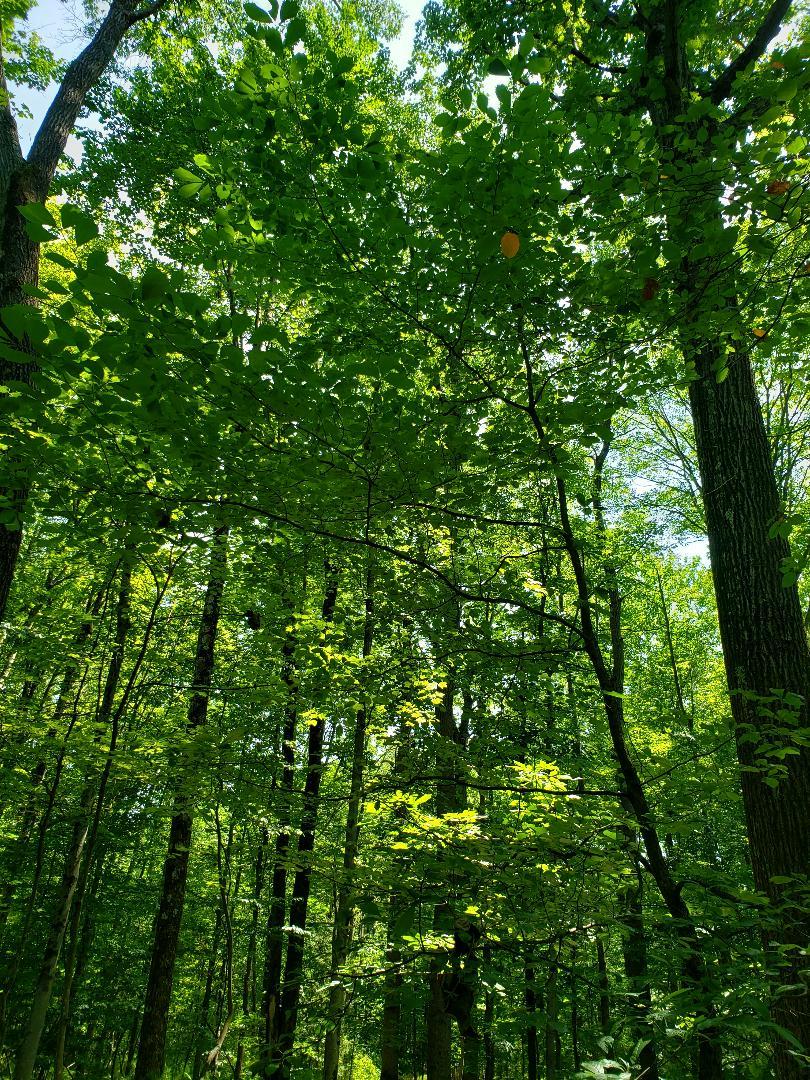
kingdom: Plantae
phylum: Tracheophyta
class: Magnoliopsida
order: Cornales
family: Nyssaceae
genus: Nyssa
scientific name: Nyssa sylvatica
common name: Black tupelo
